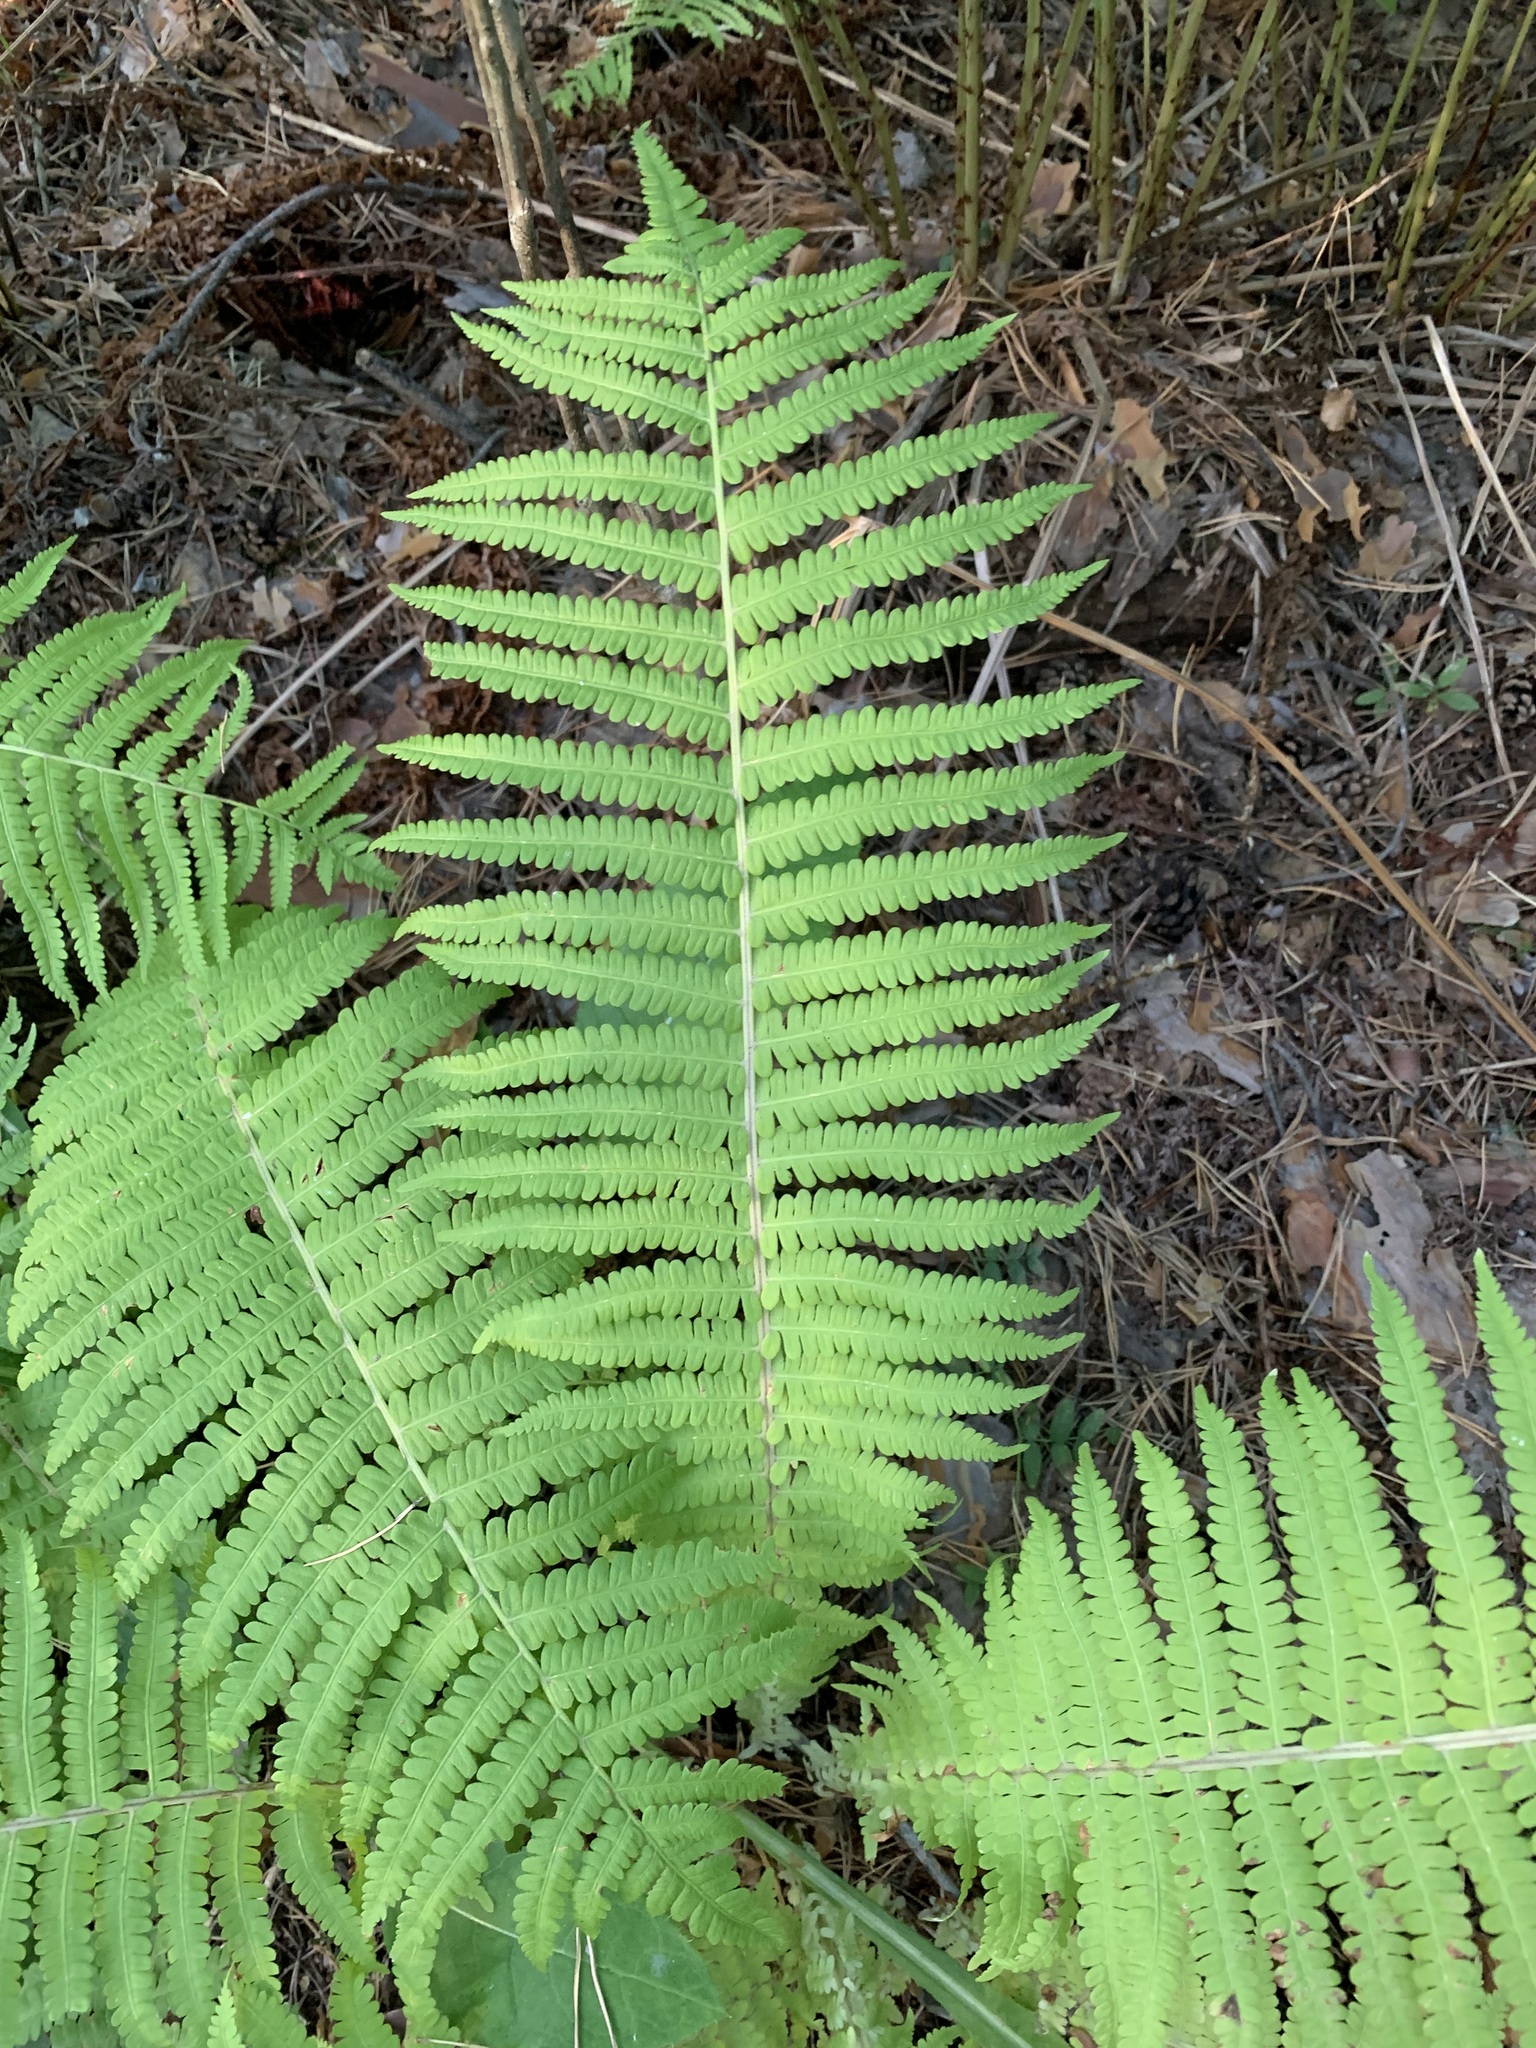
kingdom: Plantae
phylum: Tracheophyta
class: Polypodiopsida
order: Polypodiales
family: Onocleaceae
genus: Matteuccia
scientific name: Matteuccia struthiopteris
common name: Ostrich fern
